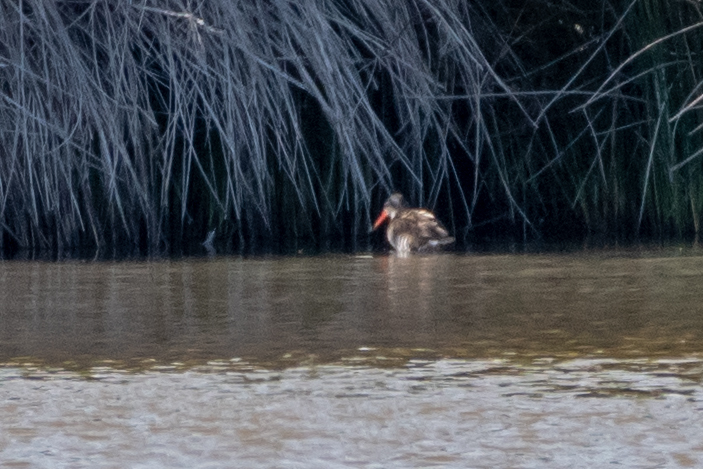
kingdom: Animalia
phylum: Chordata
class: Aves
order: Gruiformes
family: Rallidae
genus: Rallus
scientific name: Rallus aquaticus
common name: Water rail
